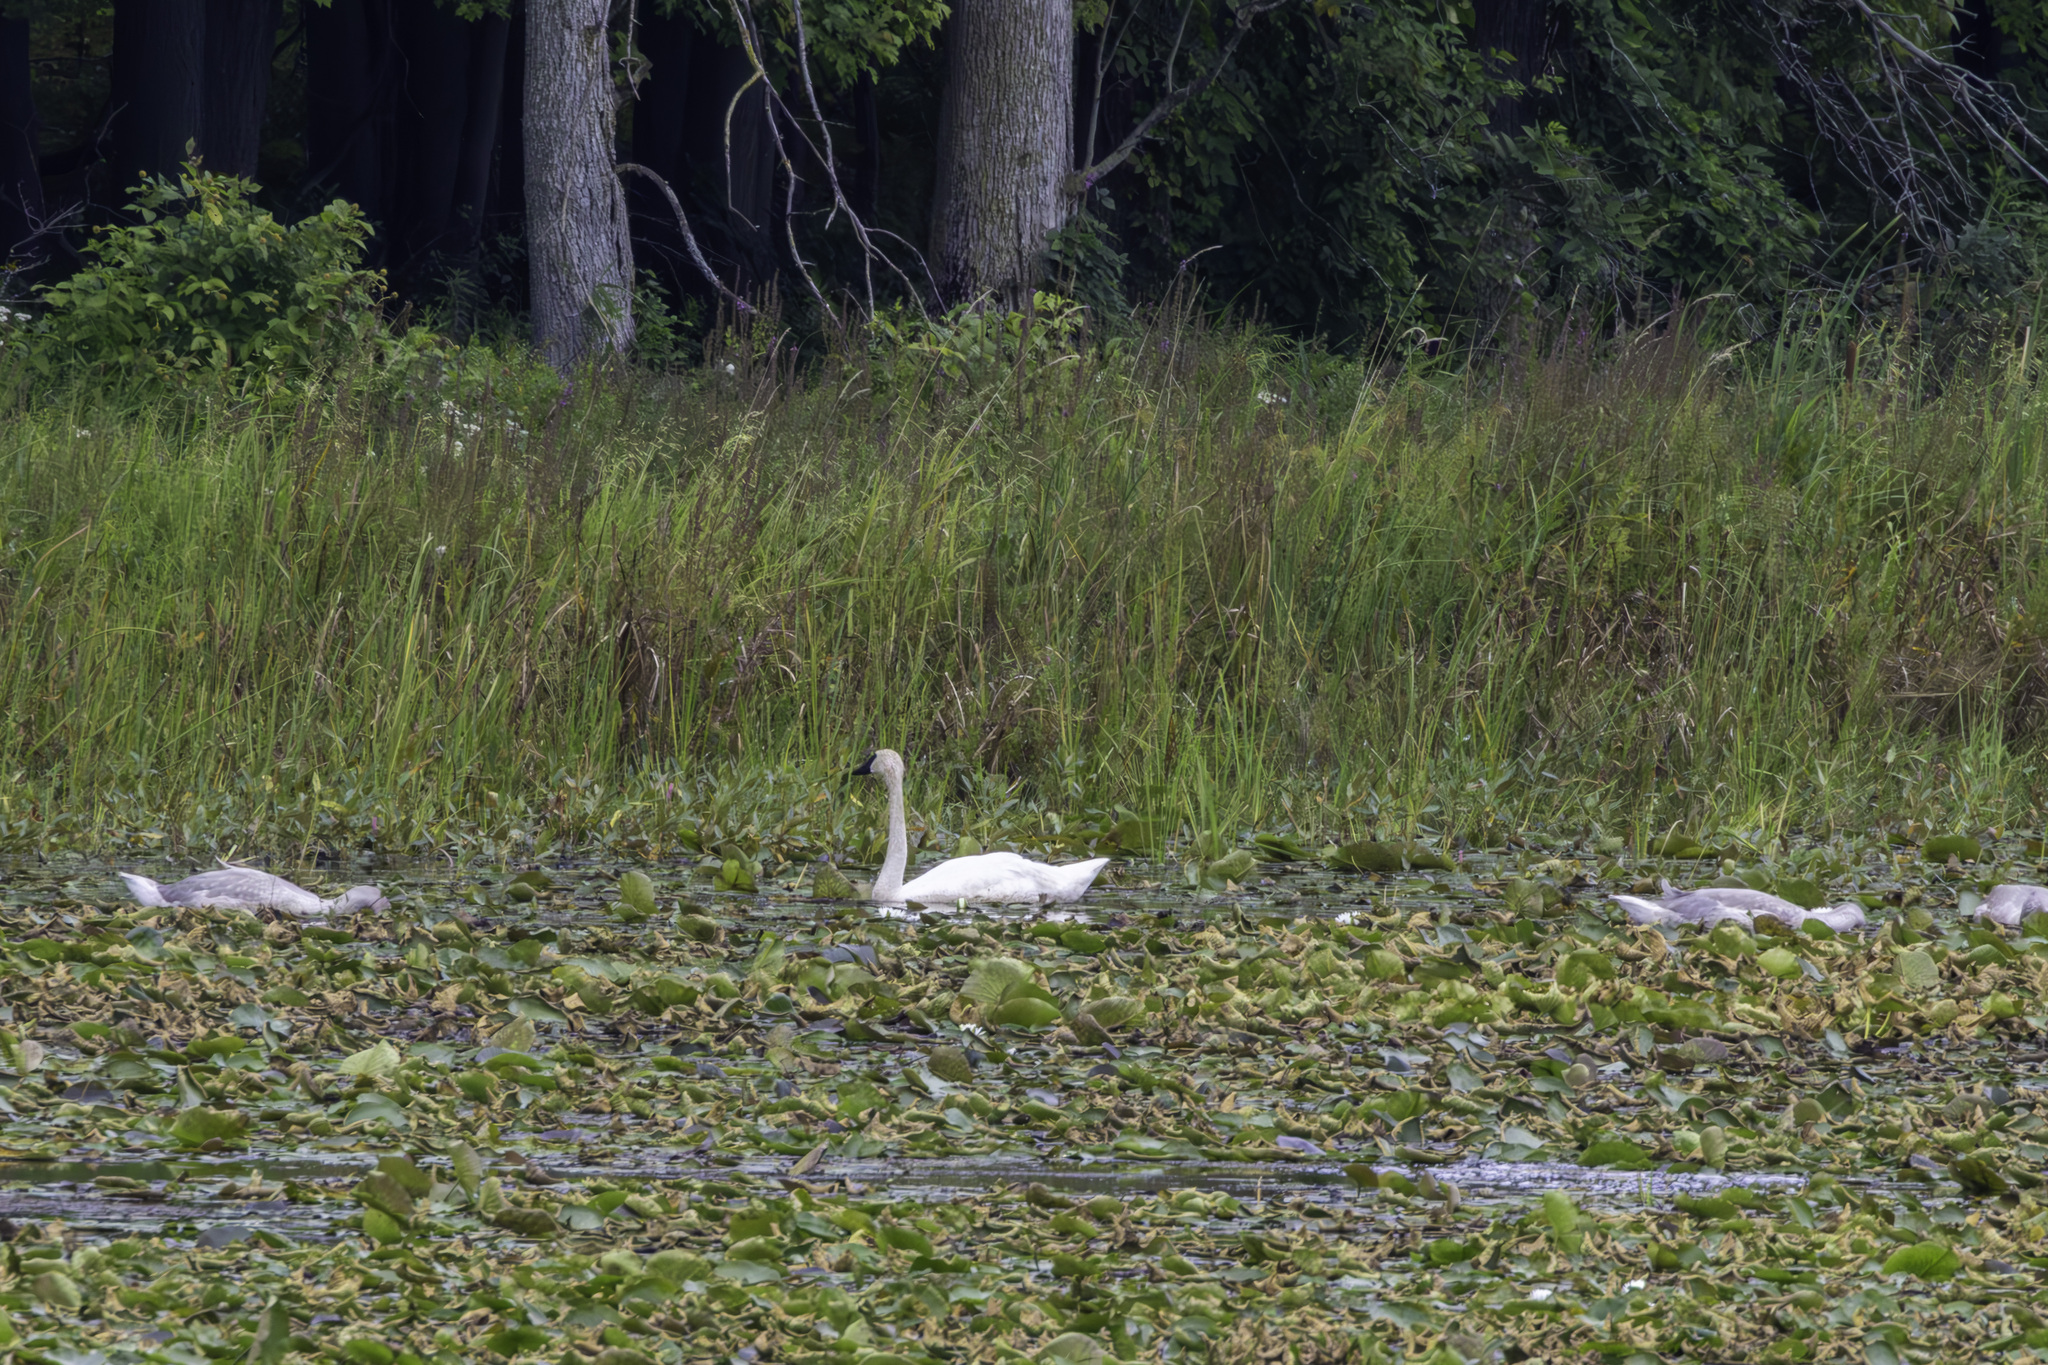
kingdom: Animalia
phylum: Chordata
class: Aves
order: Anseriformes
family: Anatidae
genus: Cygnus
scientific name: Cygnus buccinator
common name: Trumpeter swan
